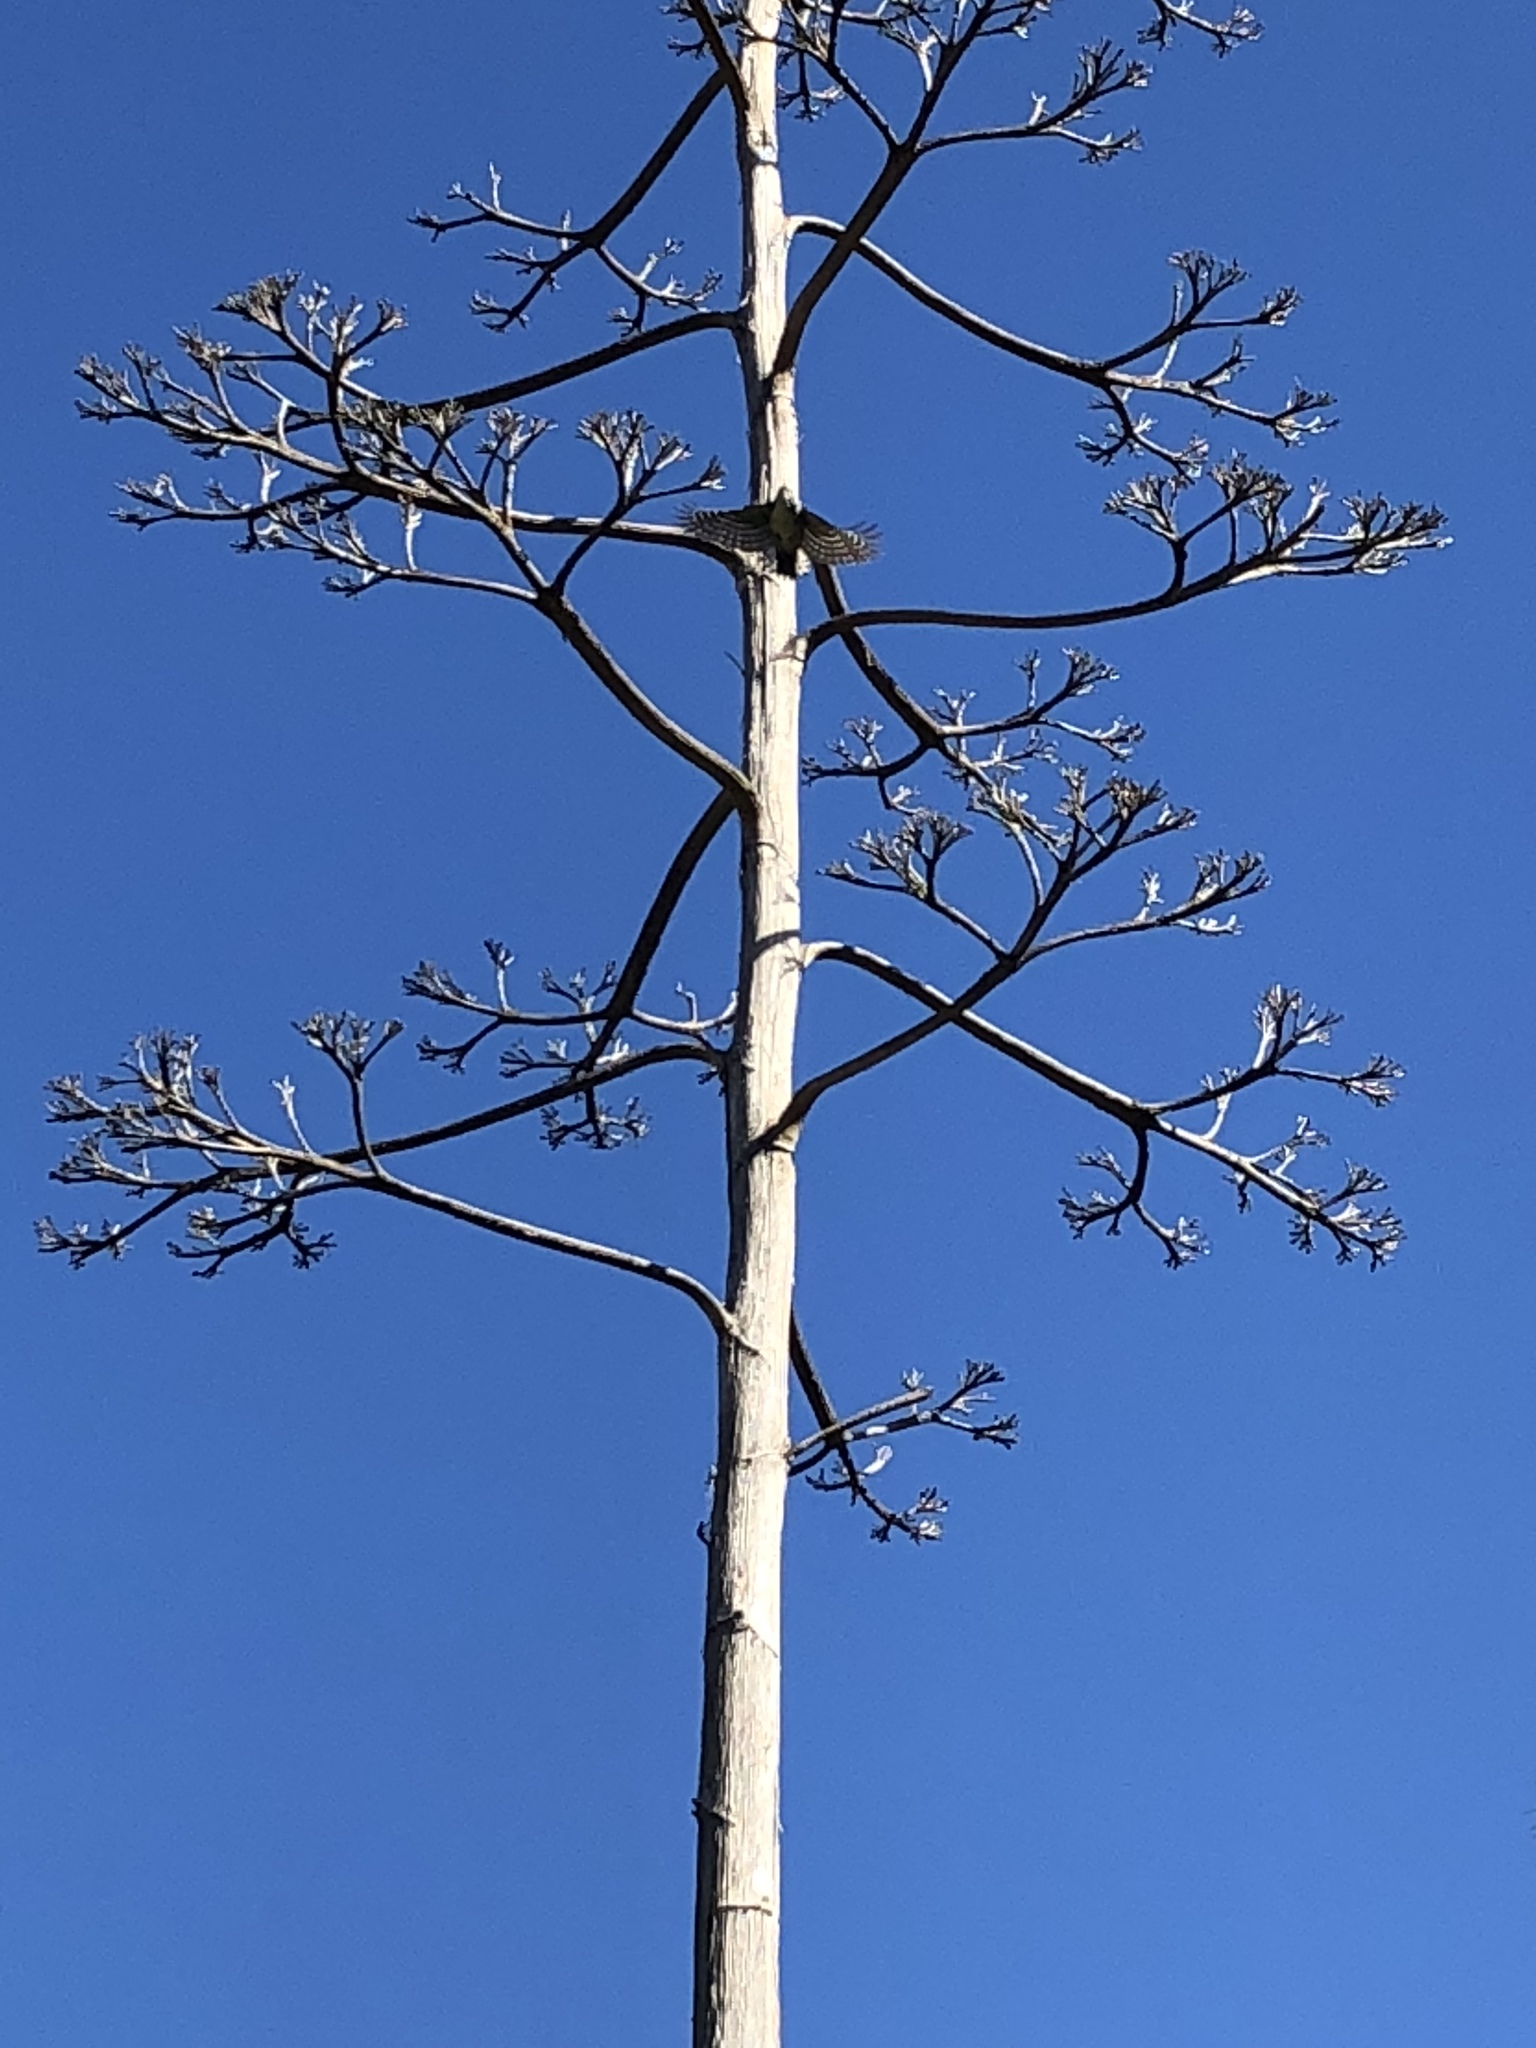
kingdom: Animalia
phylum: Chordata
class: Aves
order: Piciformes
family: Picidae
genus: Dryobates
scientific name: Dryobates nuttallii
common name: Nuttall's woodpecker
